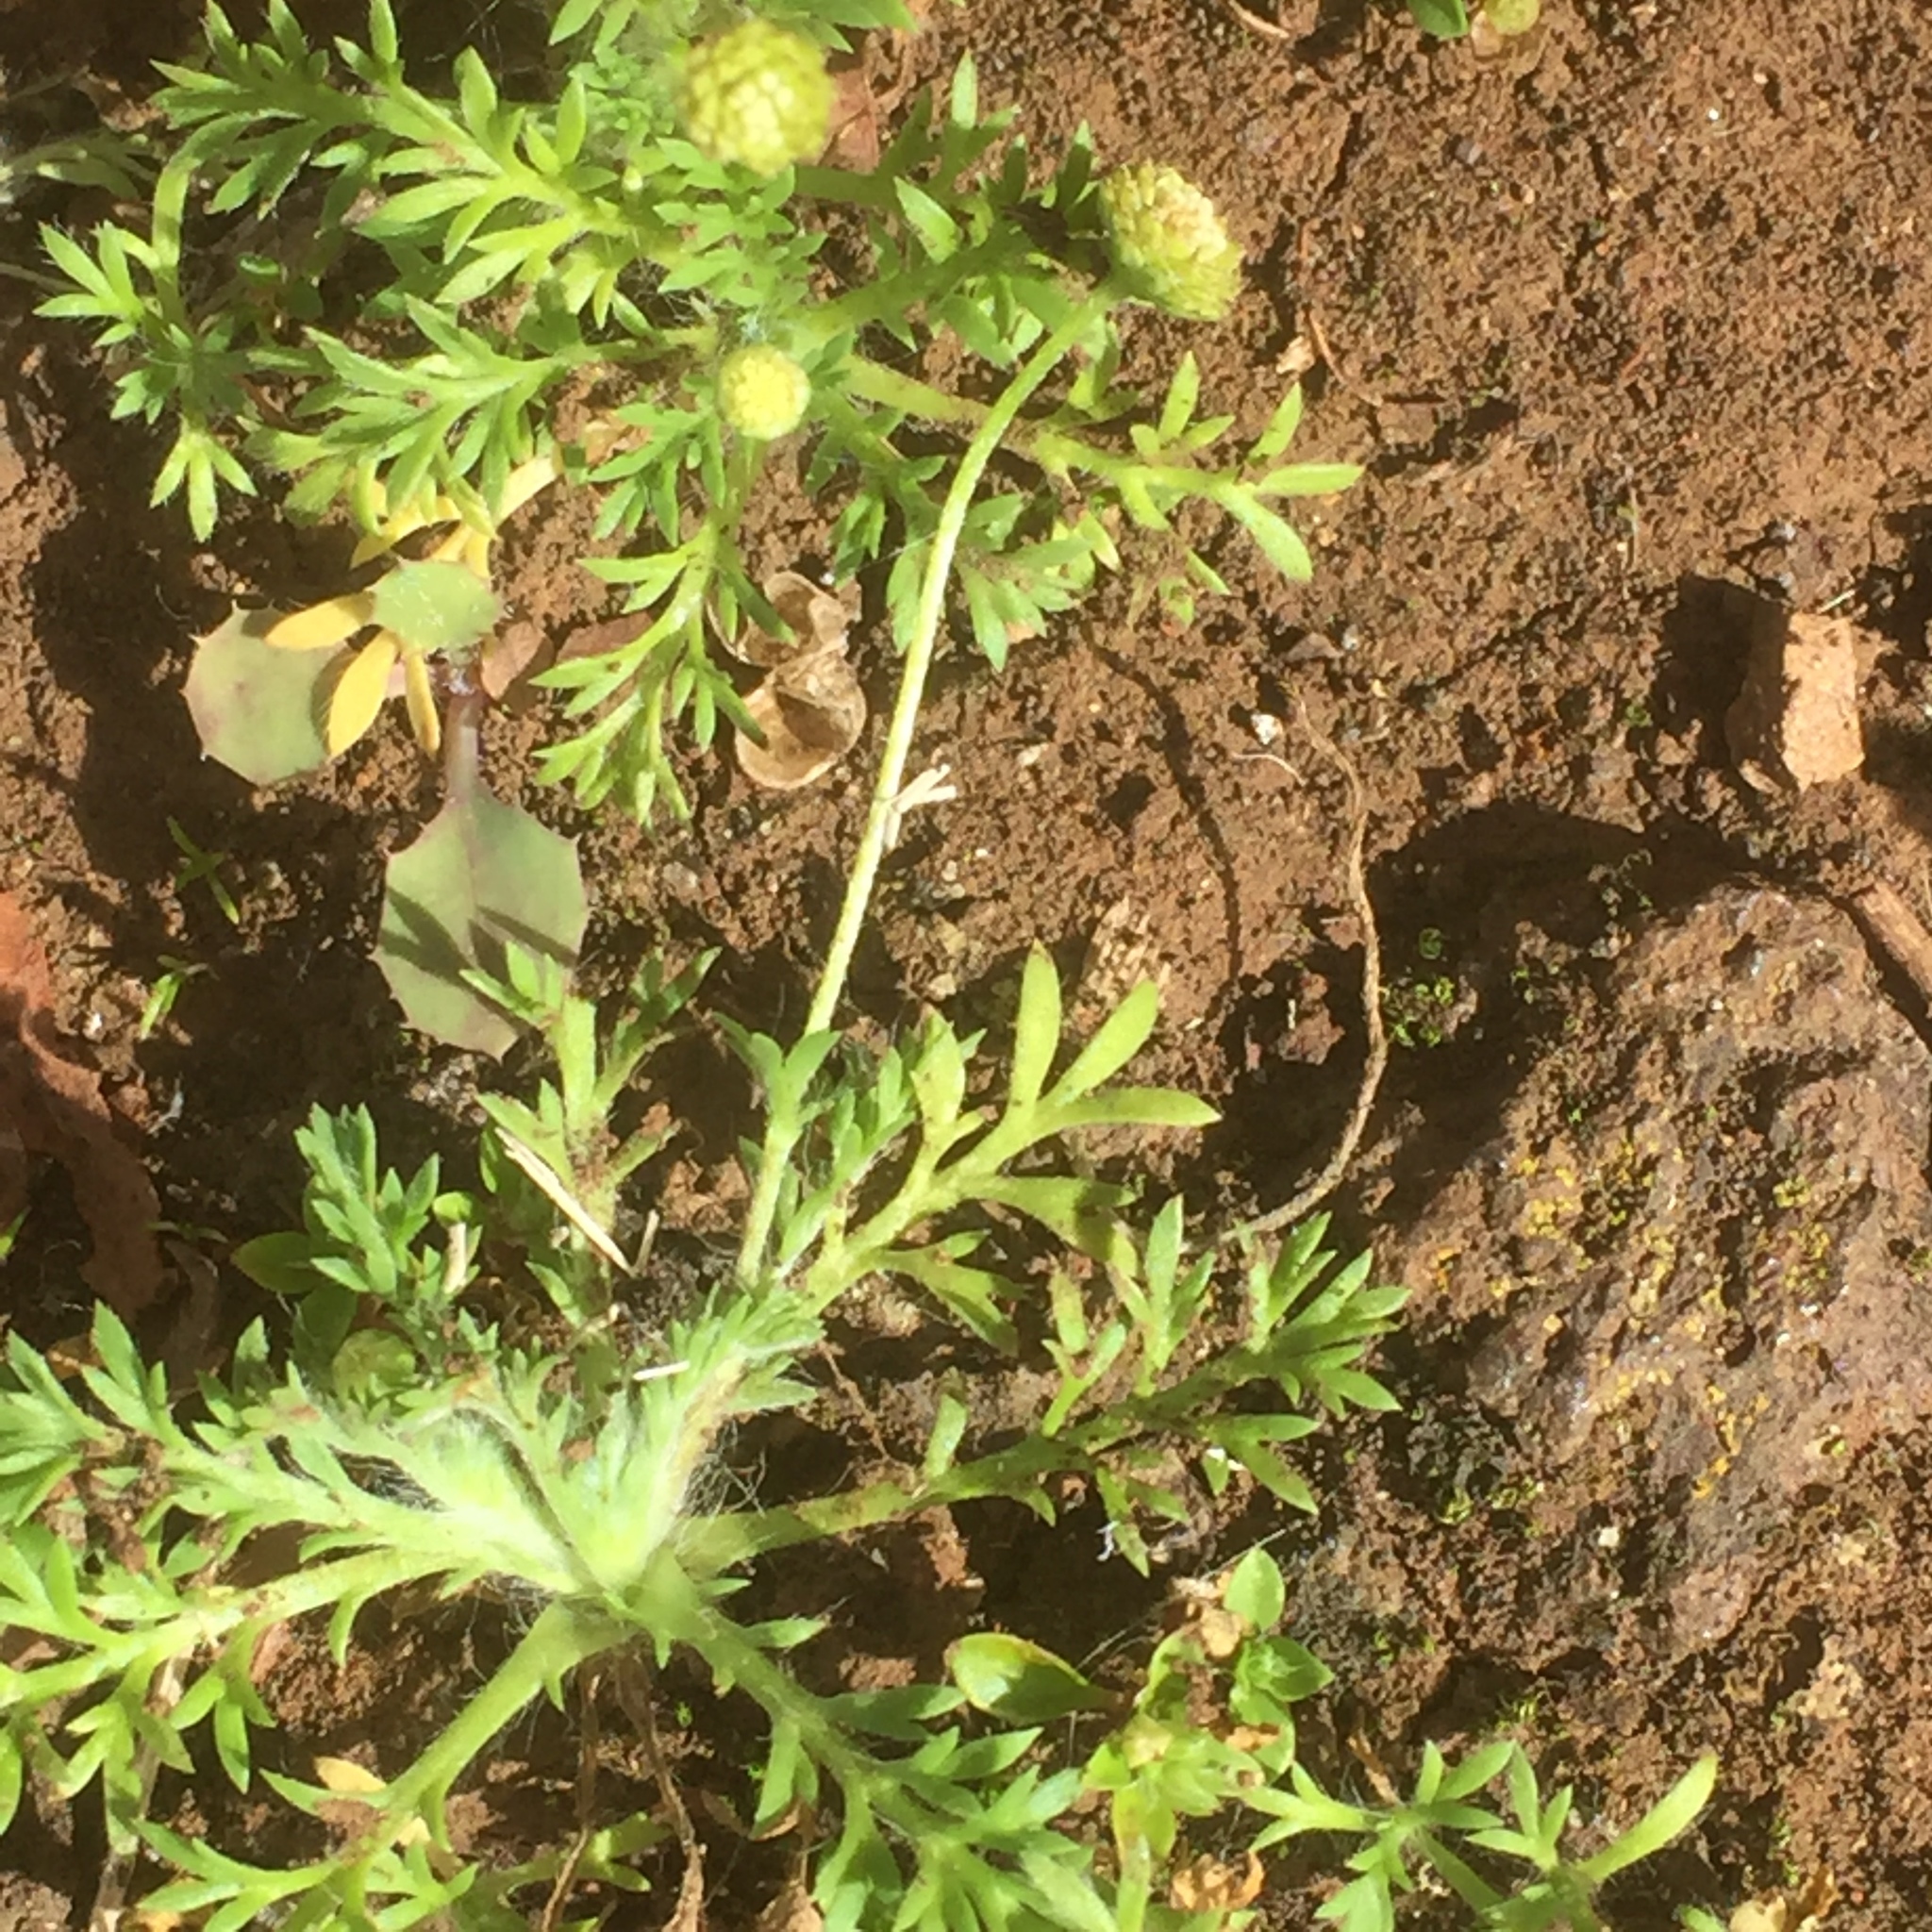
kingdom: Plantae
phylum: Tracheophyta
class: Magnoliopsida
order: Asterales
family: Asteraceae
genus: Cotula
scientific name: Cotula australis
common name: Australian waterbuttons
